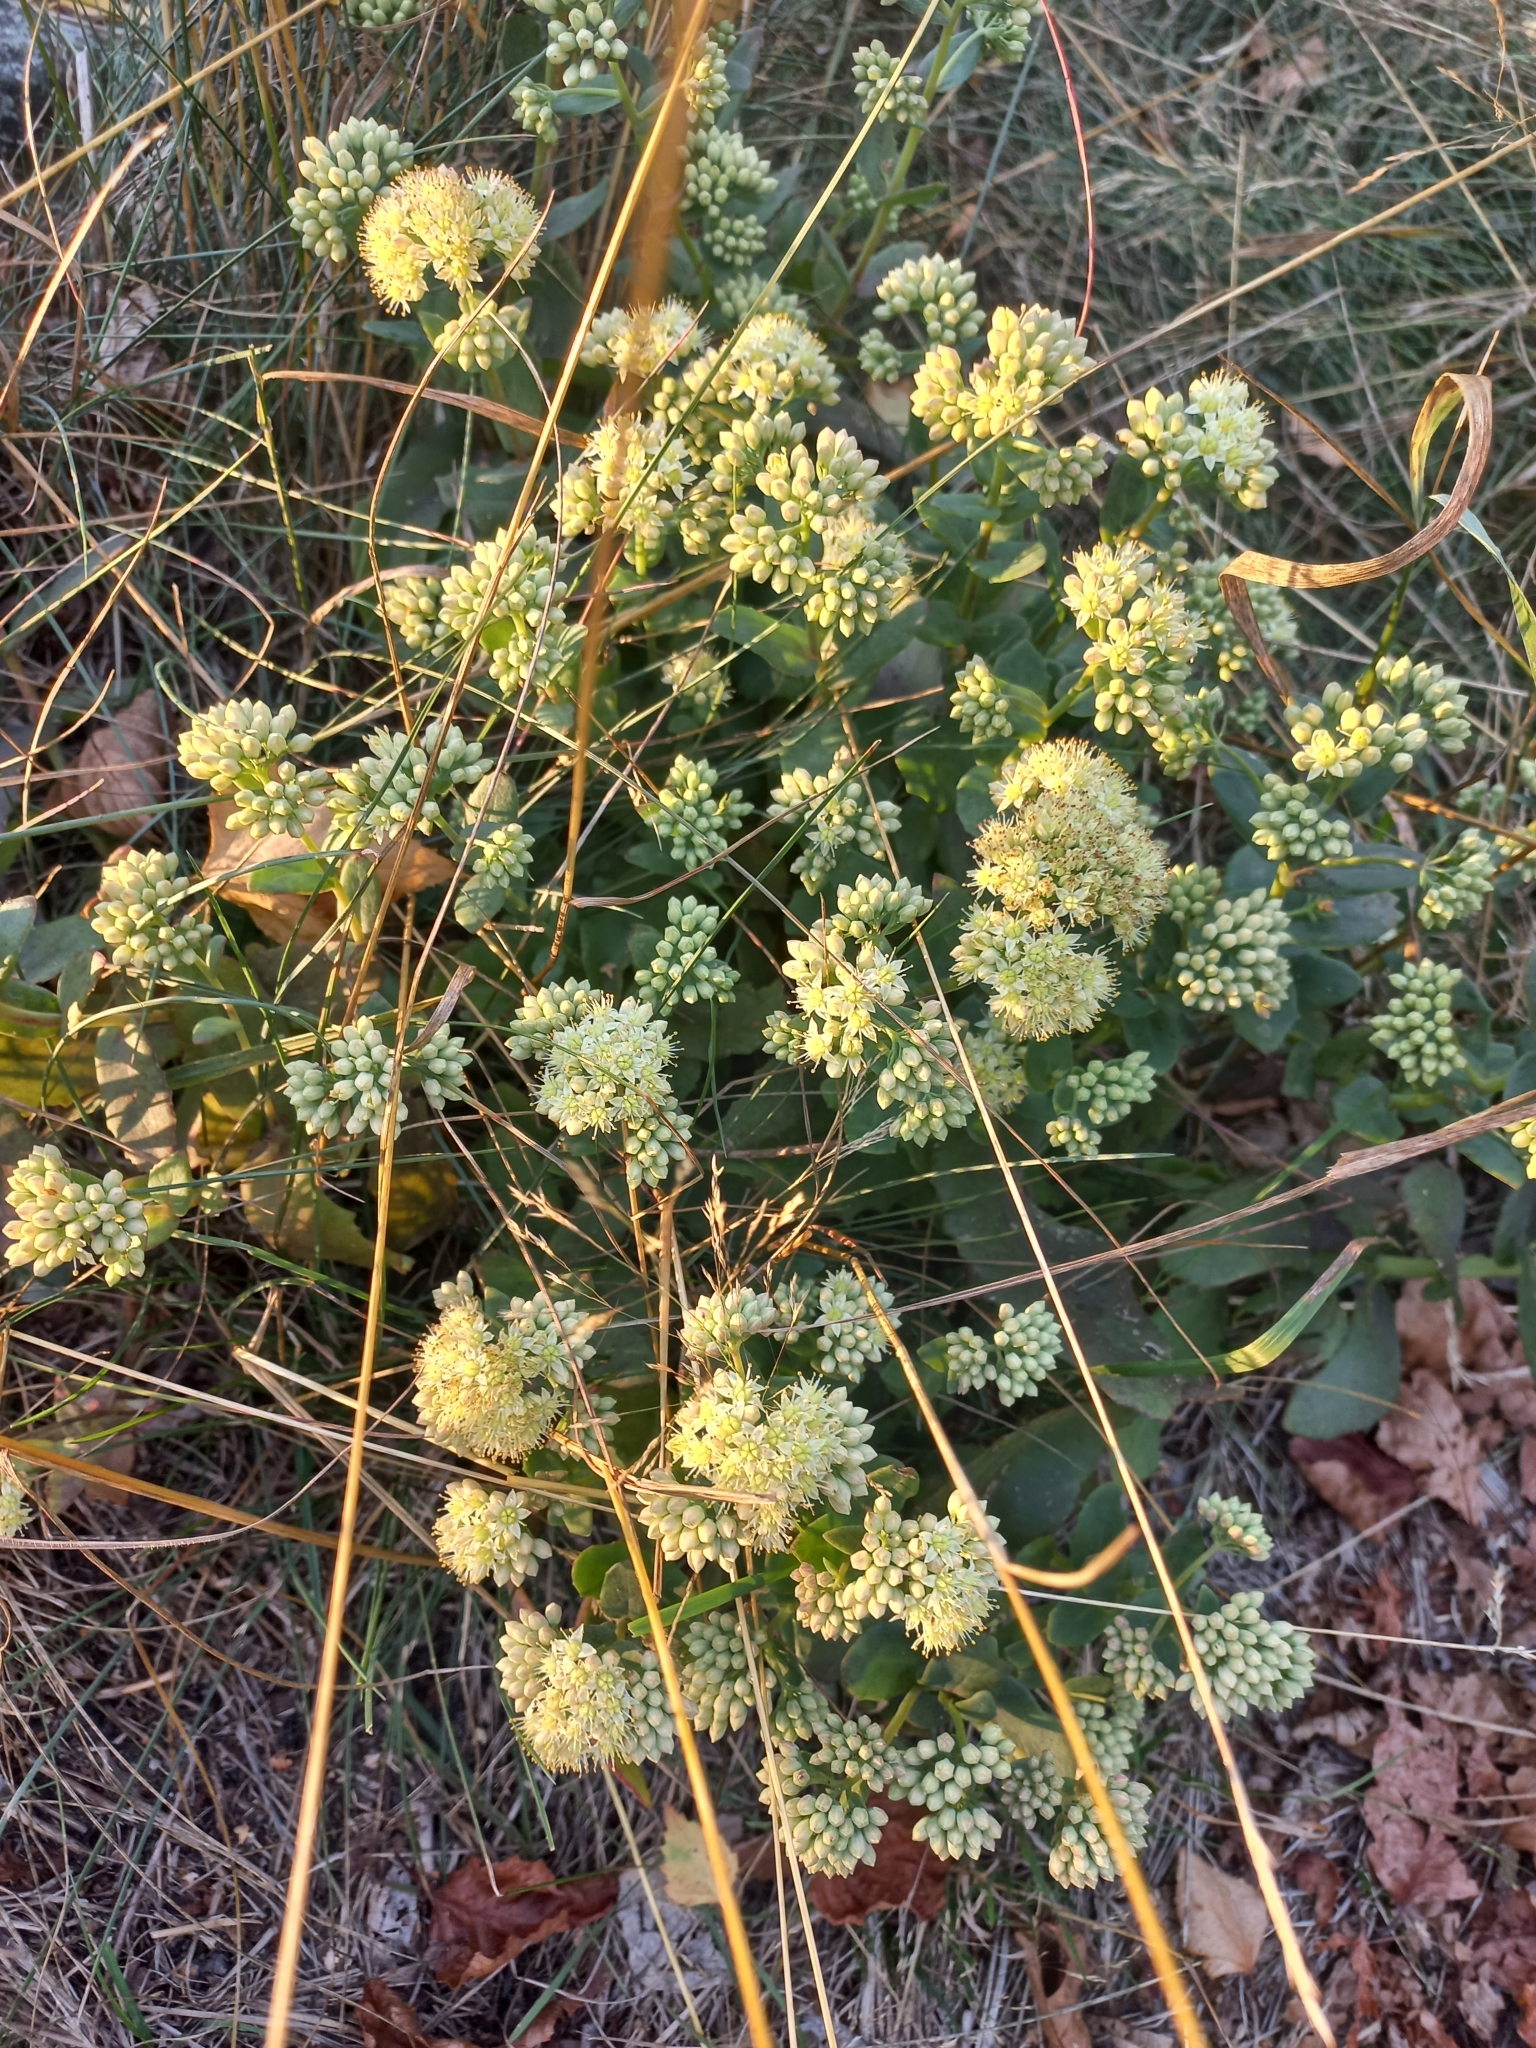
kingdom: Plantae
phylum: Tracheophyta
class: Magnoliopsida
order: Saxifragales
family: Crassulaceae
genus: Hylotelephium
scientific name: Hylotelephium maximum
